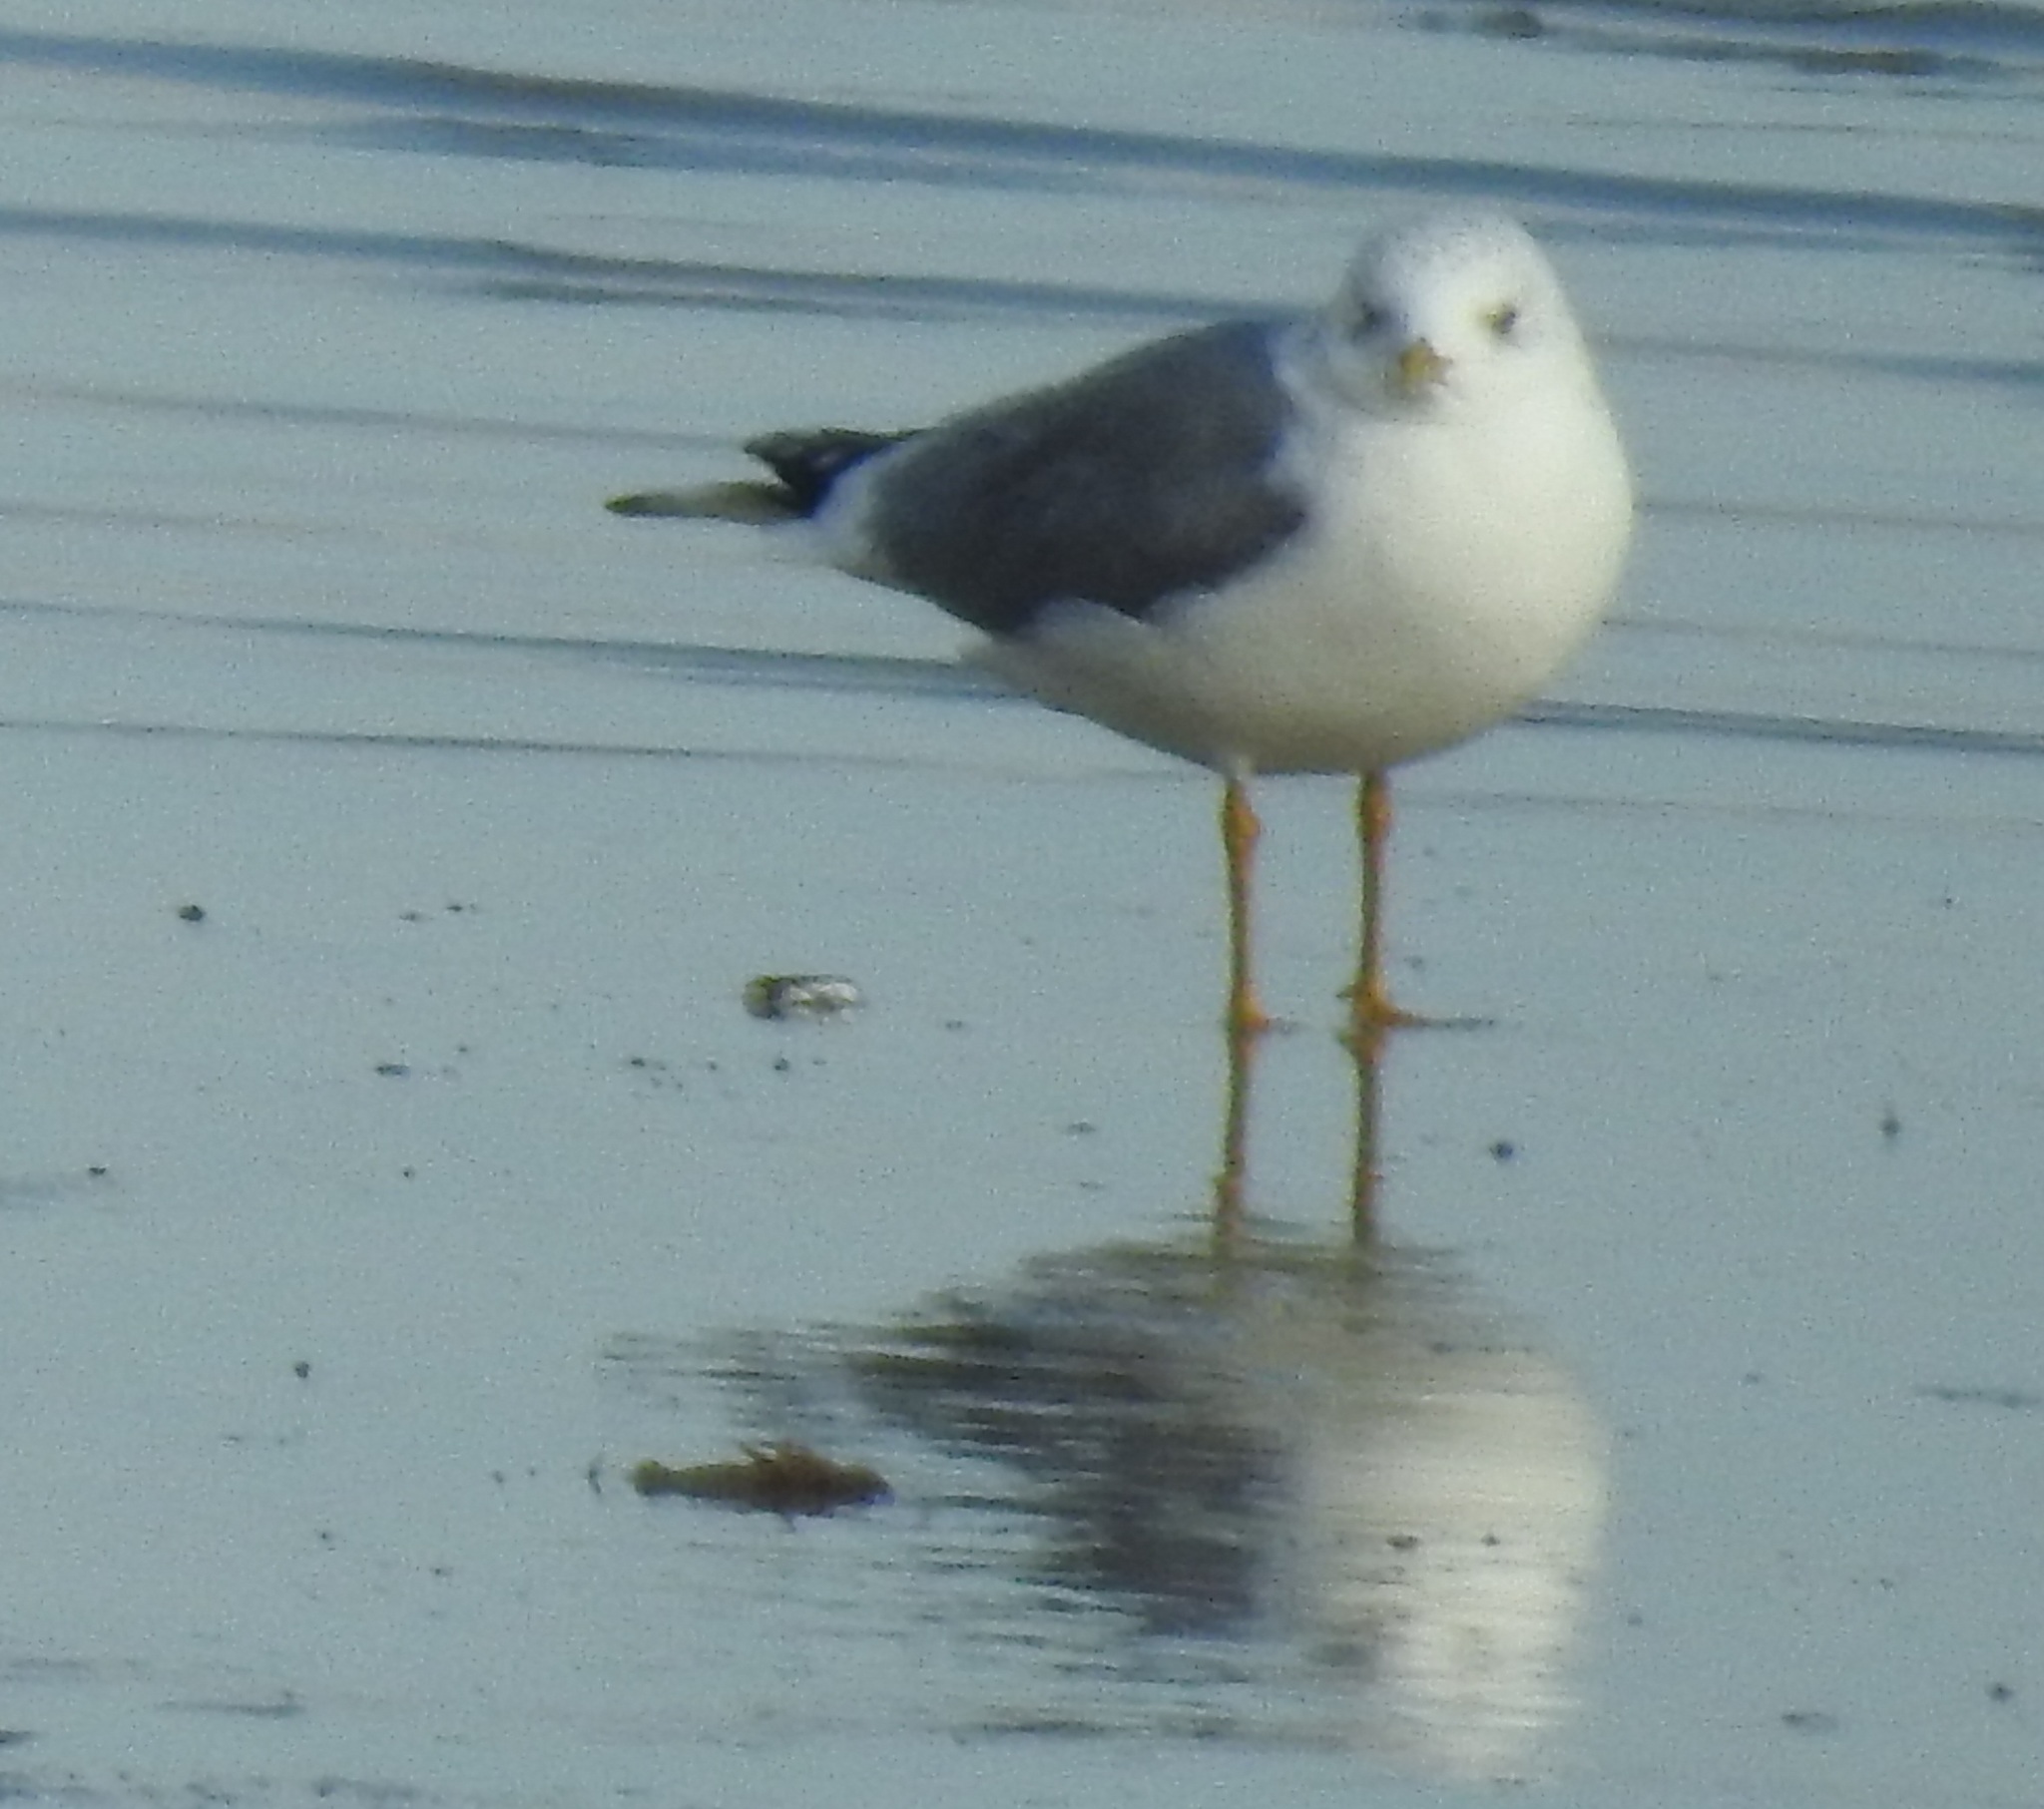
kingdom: Animalia
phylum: Chordata
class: Aves
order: Charadriiformes
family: Laridae
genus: Larus
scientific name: Larus canus
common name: Mew gull
